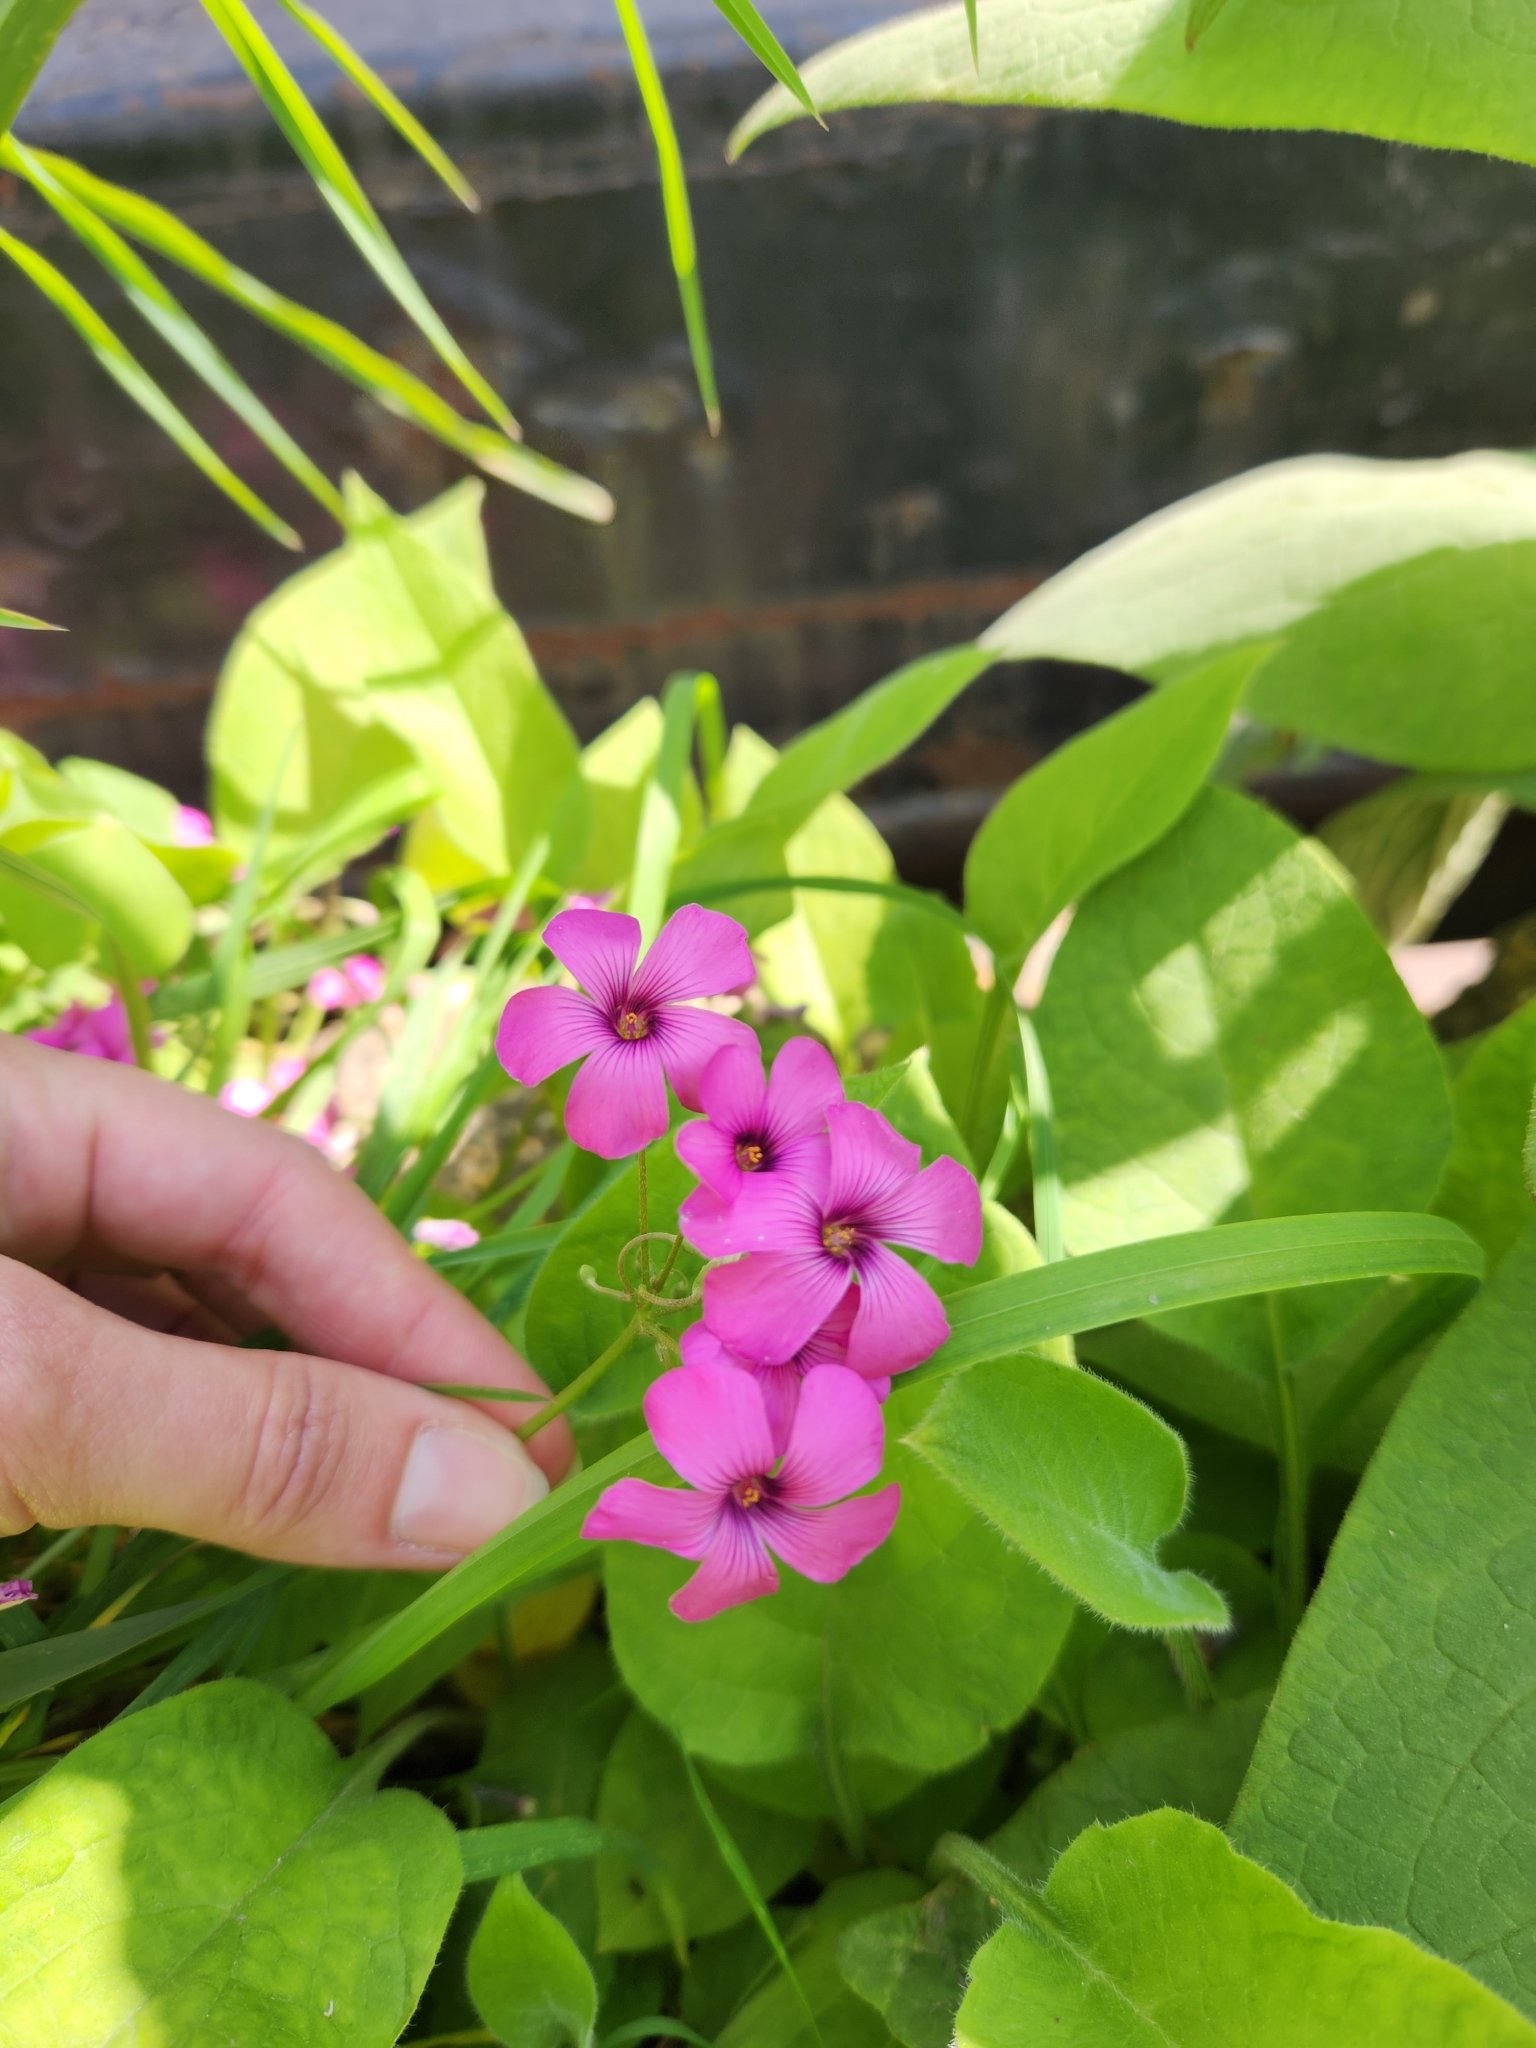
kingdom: Plantae
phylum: Tracheophyta
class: Magnoliopsida
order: Oxalidales
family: Oxalidaceae
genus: Oxalis
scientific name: Oxalis articulata
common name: Pink-sorrel
